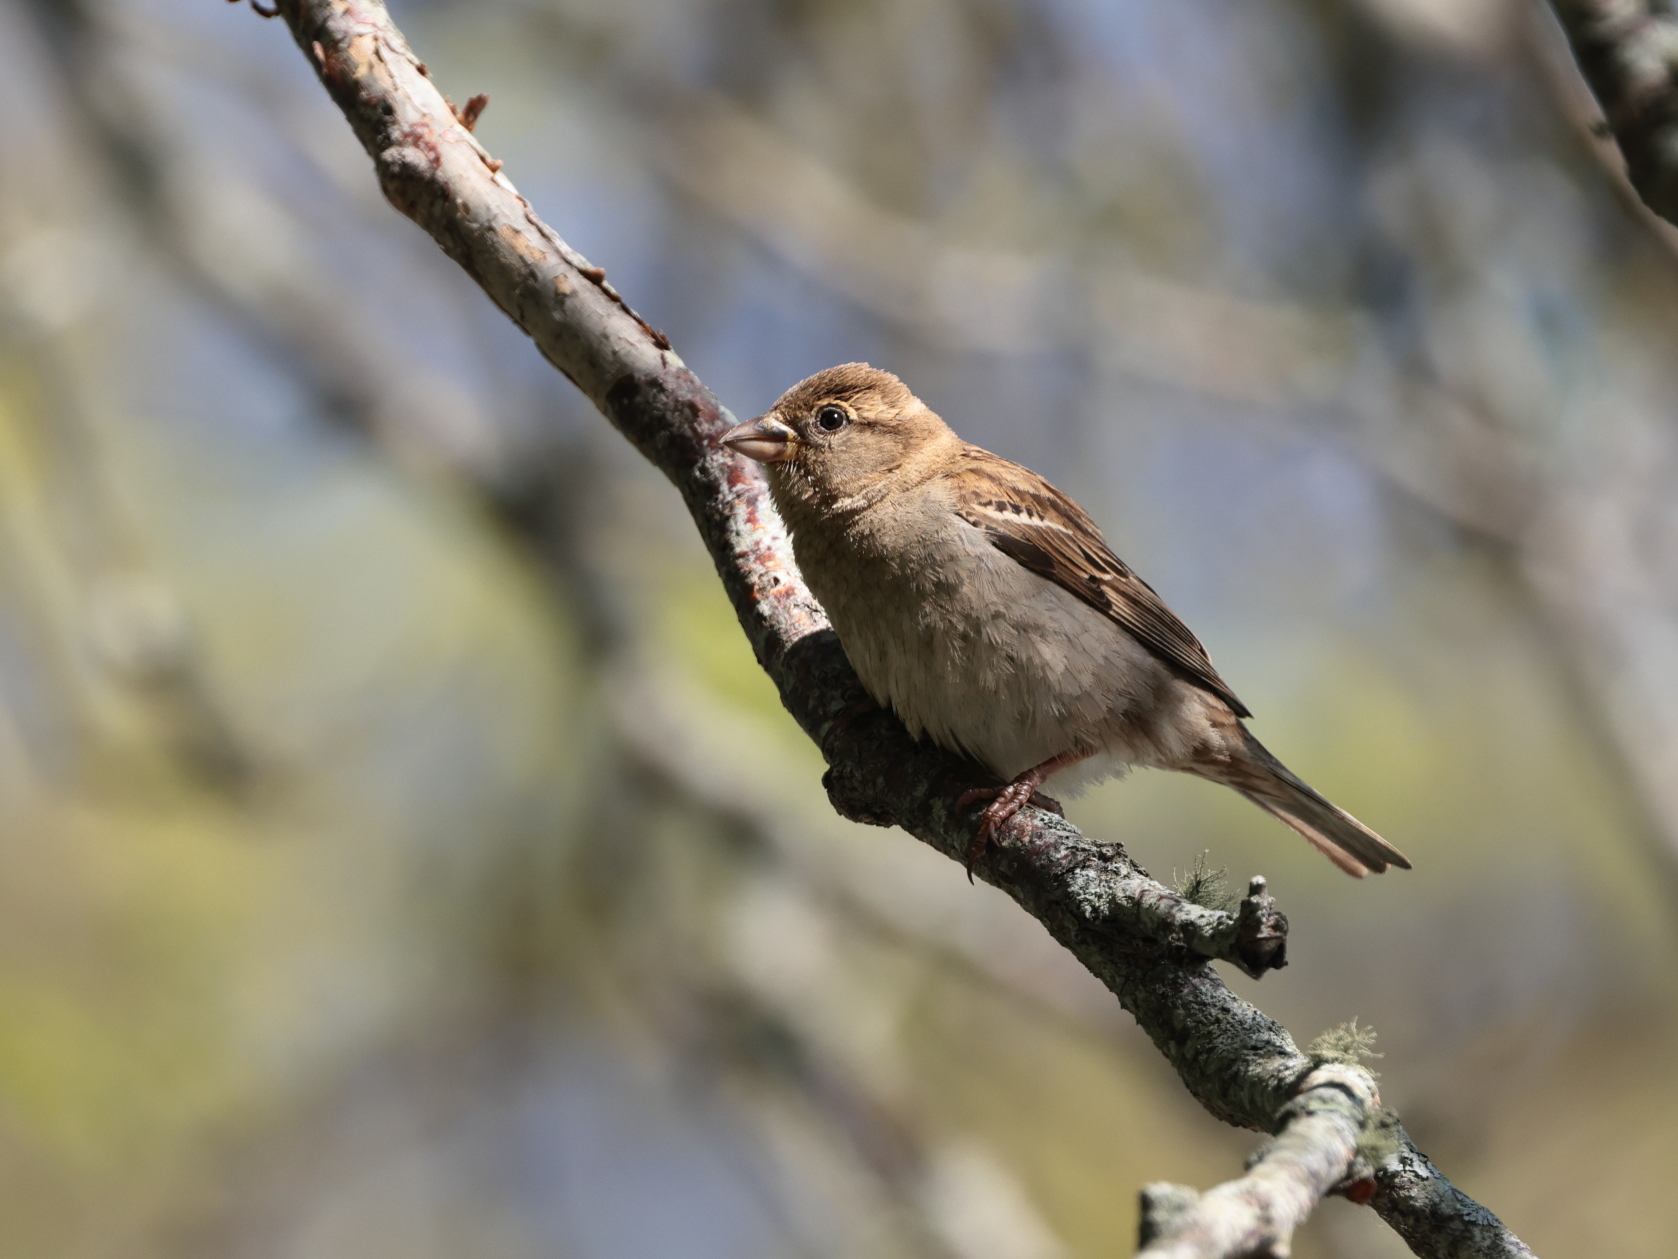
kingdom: Animalia
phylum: Chordata
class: Aves
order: Passeriformes
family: Passeridae
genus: Passer
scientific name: Passer domesticus
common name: House sparrow
